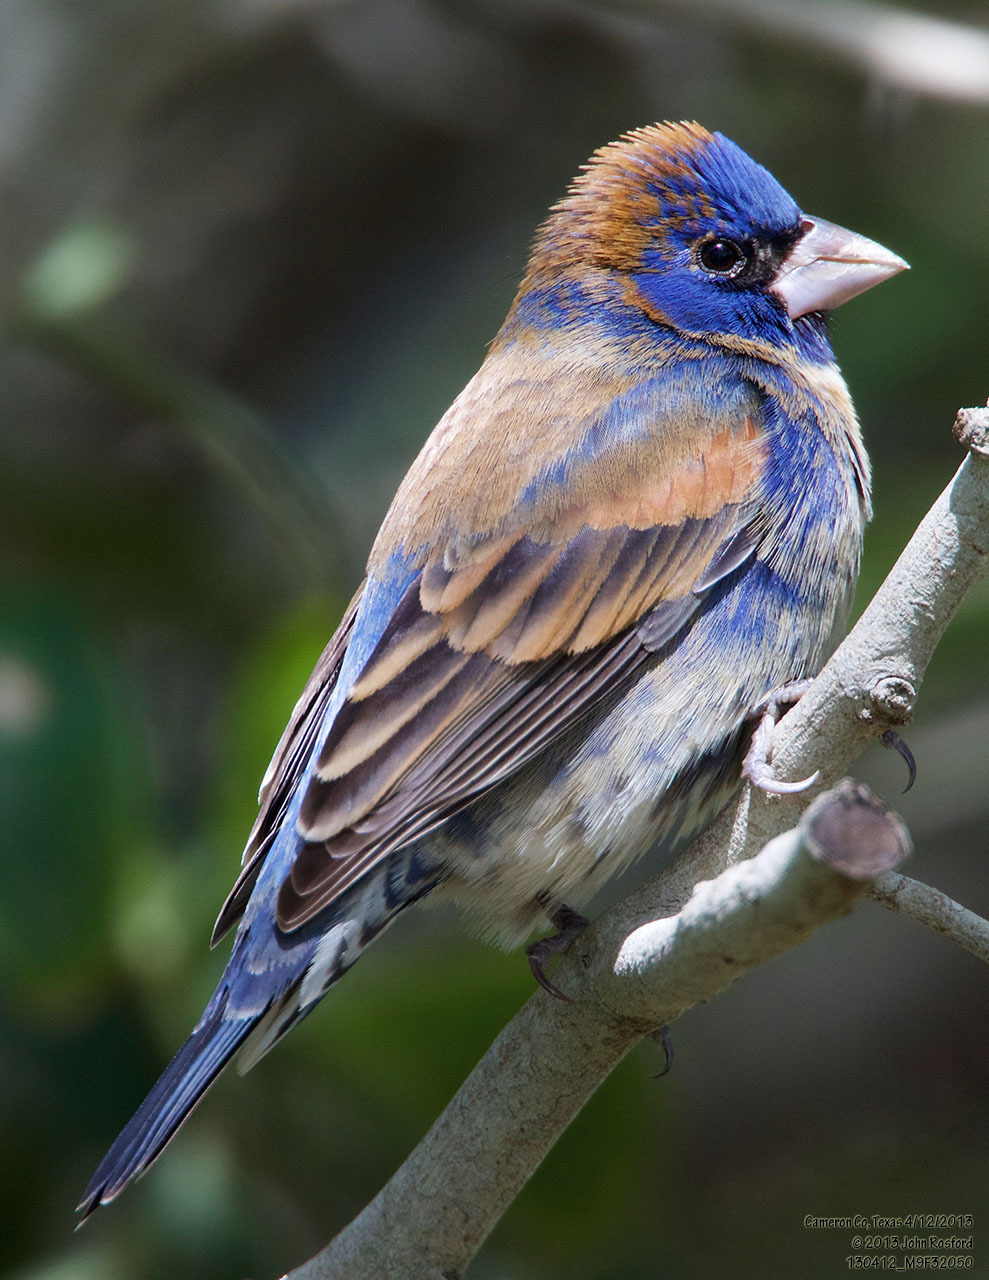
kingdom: Animalia
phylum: Chordata
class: Aves
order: Passeriformes
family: Cardinalidae
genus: Passerina
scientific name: Passerina caerulea
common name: Blue grosbeak
